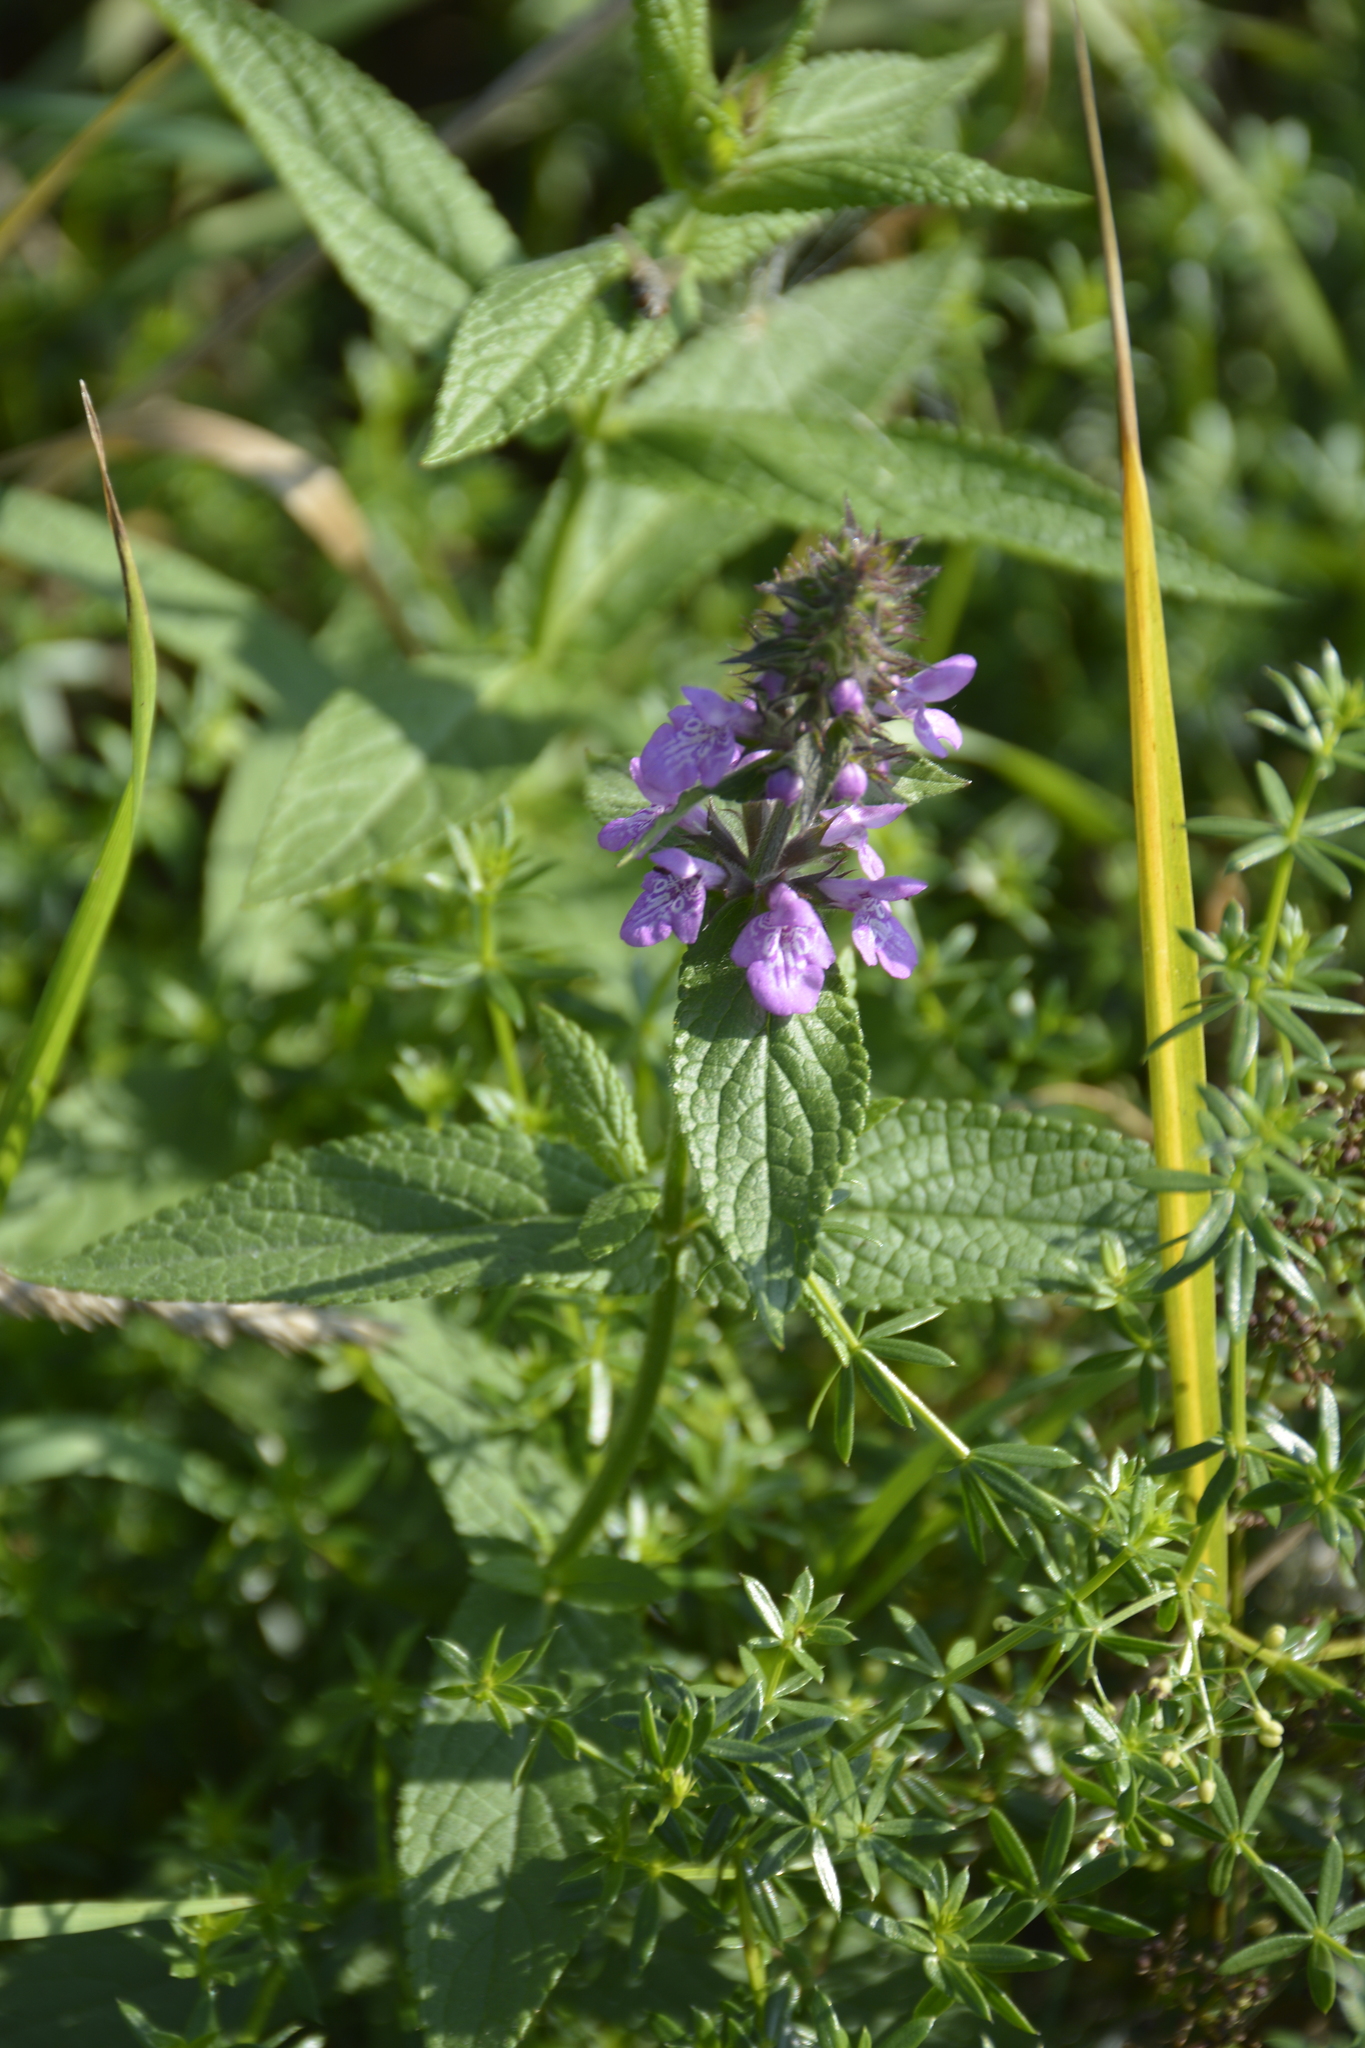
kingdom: Plantae
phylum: Tracheophyta
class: Magnoliopsida
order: Lamiales
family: Lamiaceae
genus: Stachys
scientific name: Stachys palustris
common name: Marsh woundwort
